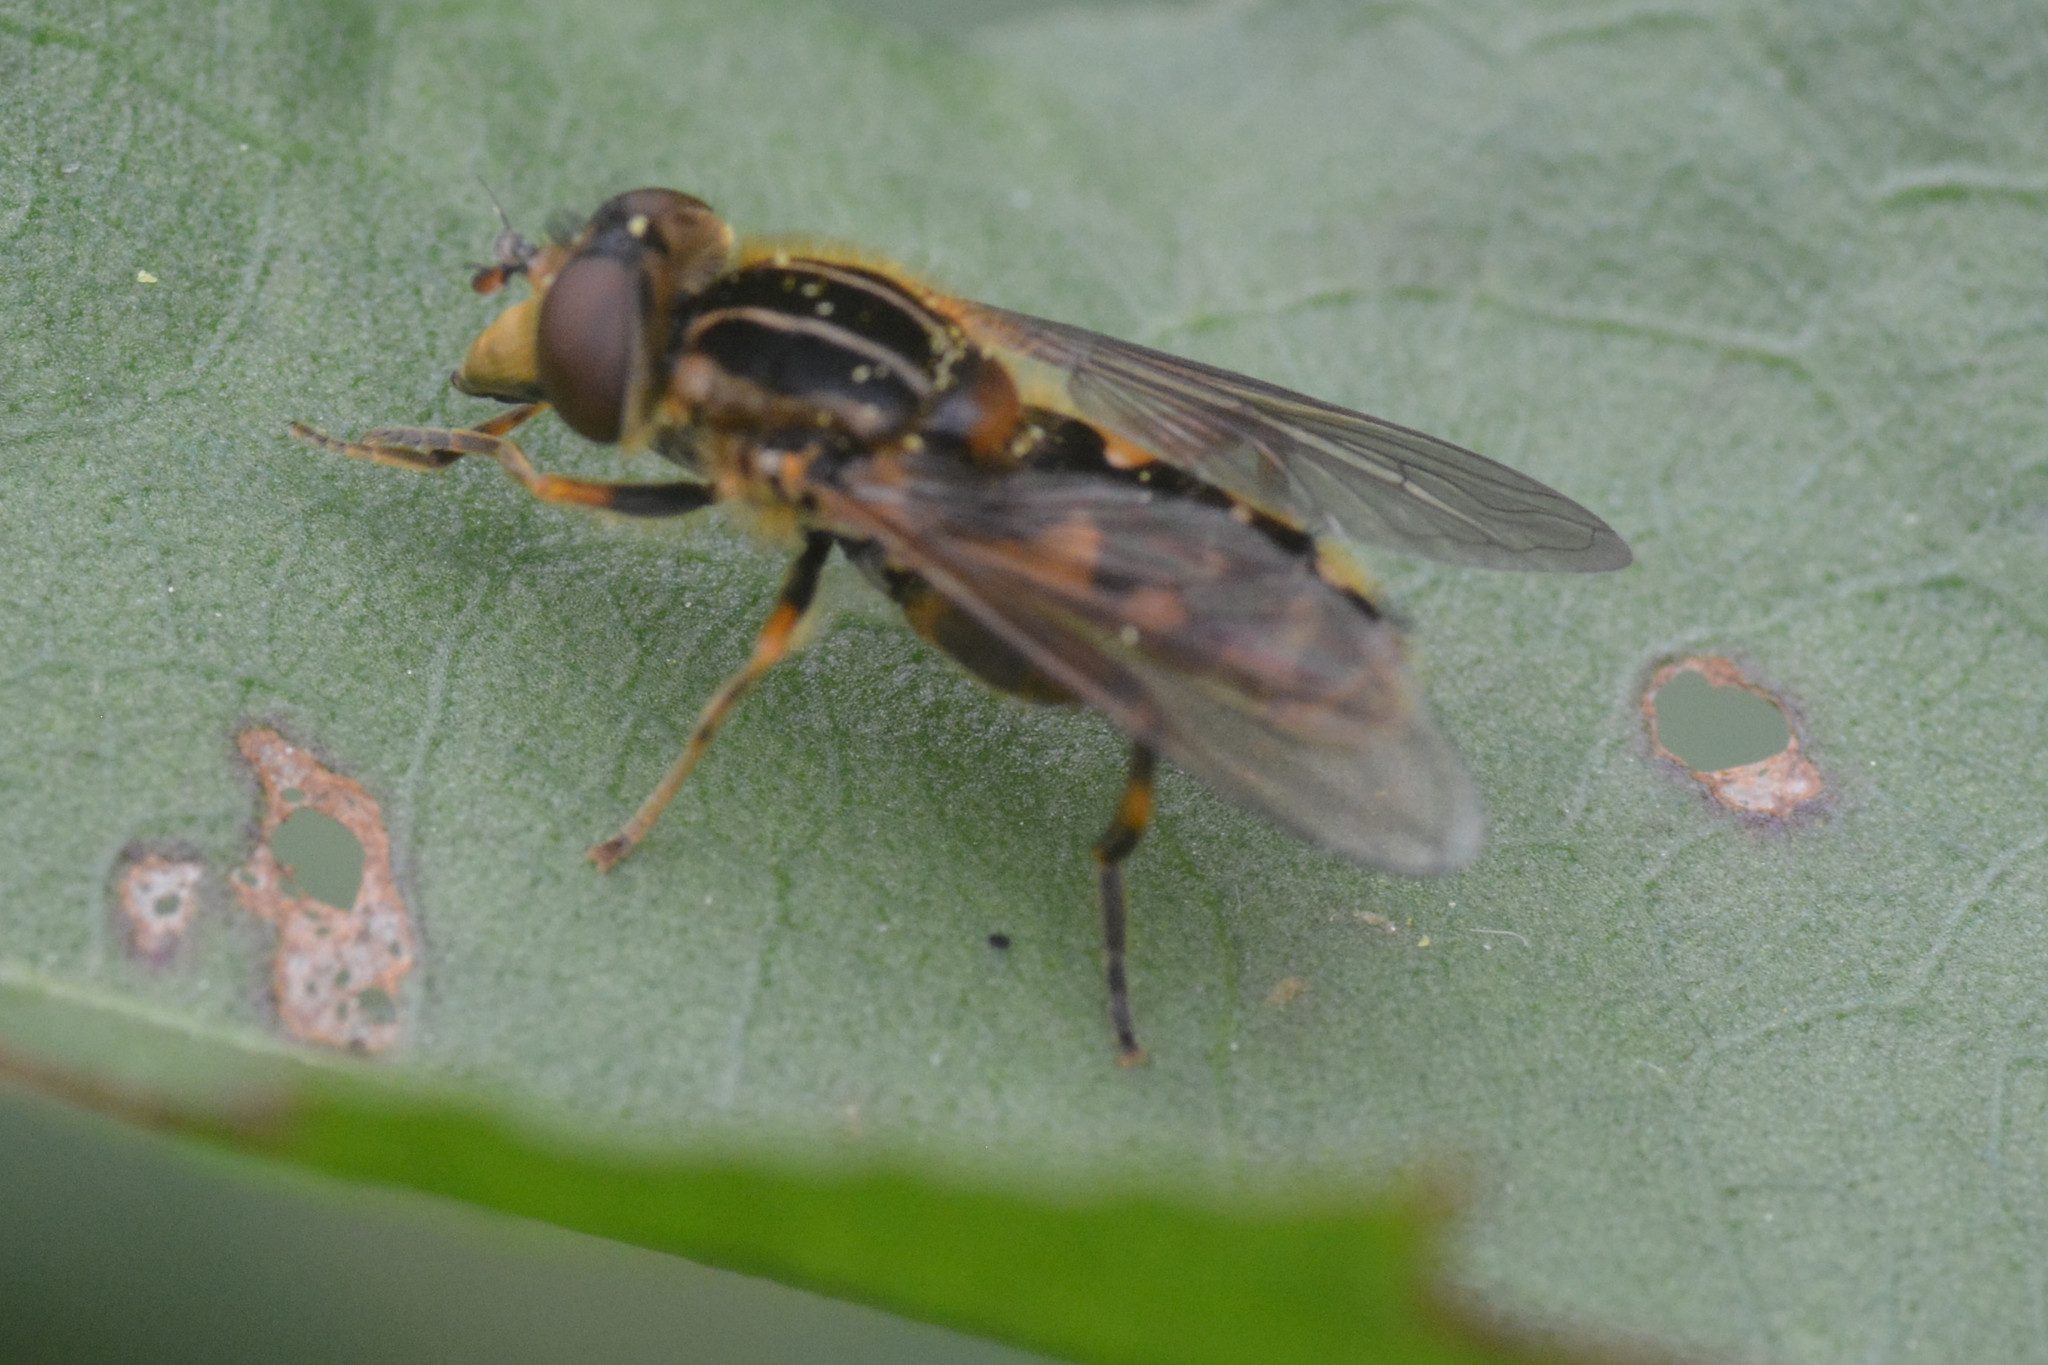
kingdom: Animalia
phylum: Arthropoda
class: Insecta
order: Diptera
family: Syrphidae
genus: Eurimyia
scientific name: Eurimyia lineatus
